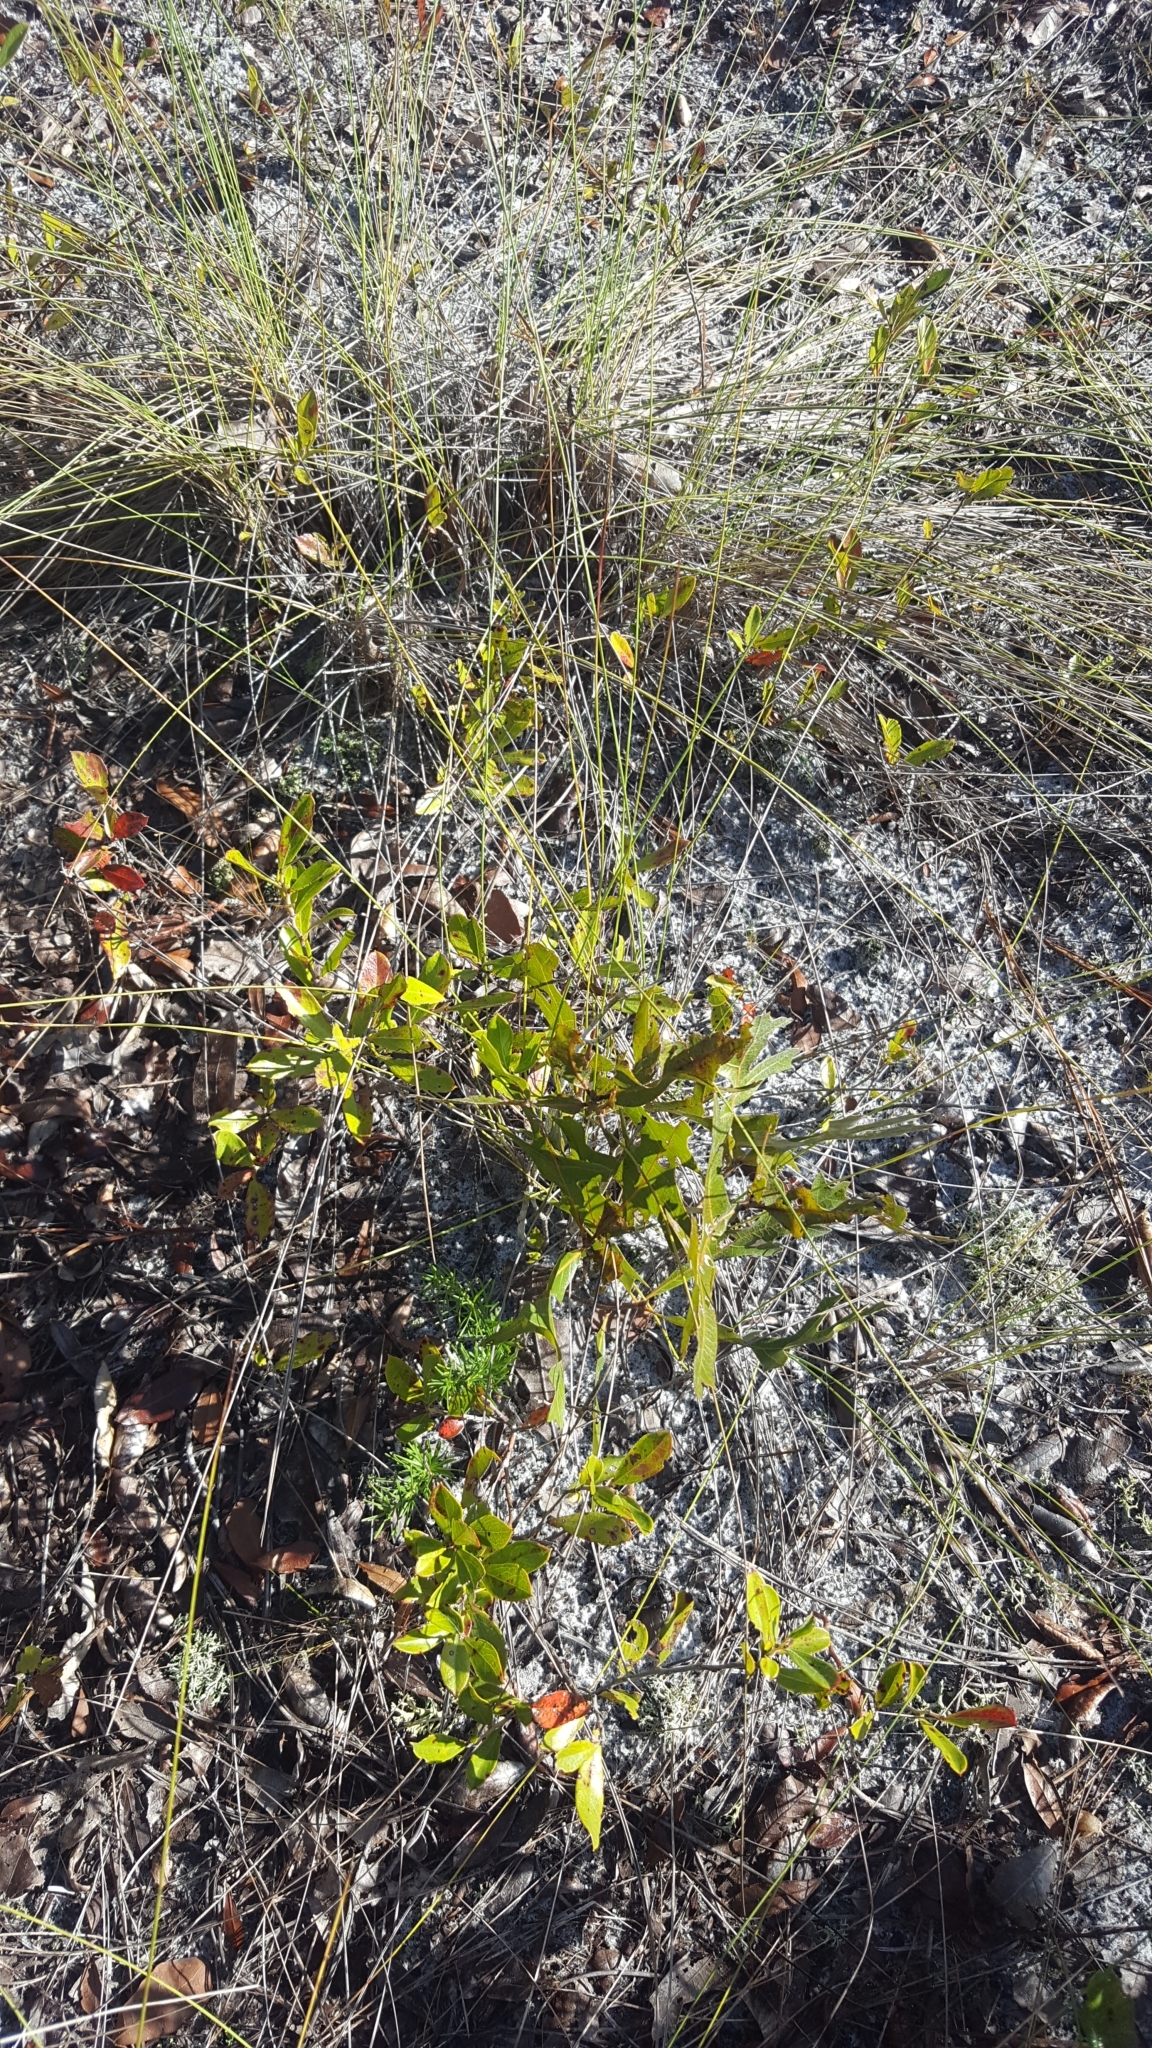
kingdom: Plantae
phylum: Tracheophyta
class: Magnoliopsida
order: Malpighiales
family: Chrysobalanaceae
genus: Geobalanus
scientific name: Geobalanus oblongifolius
